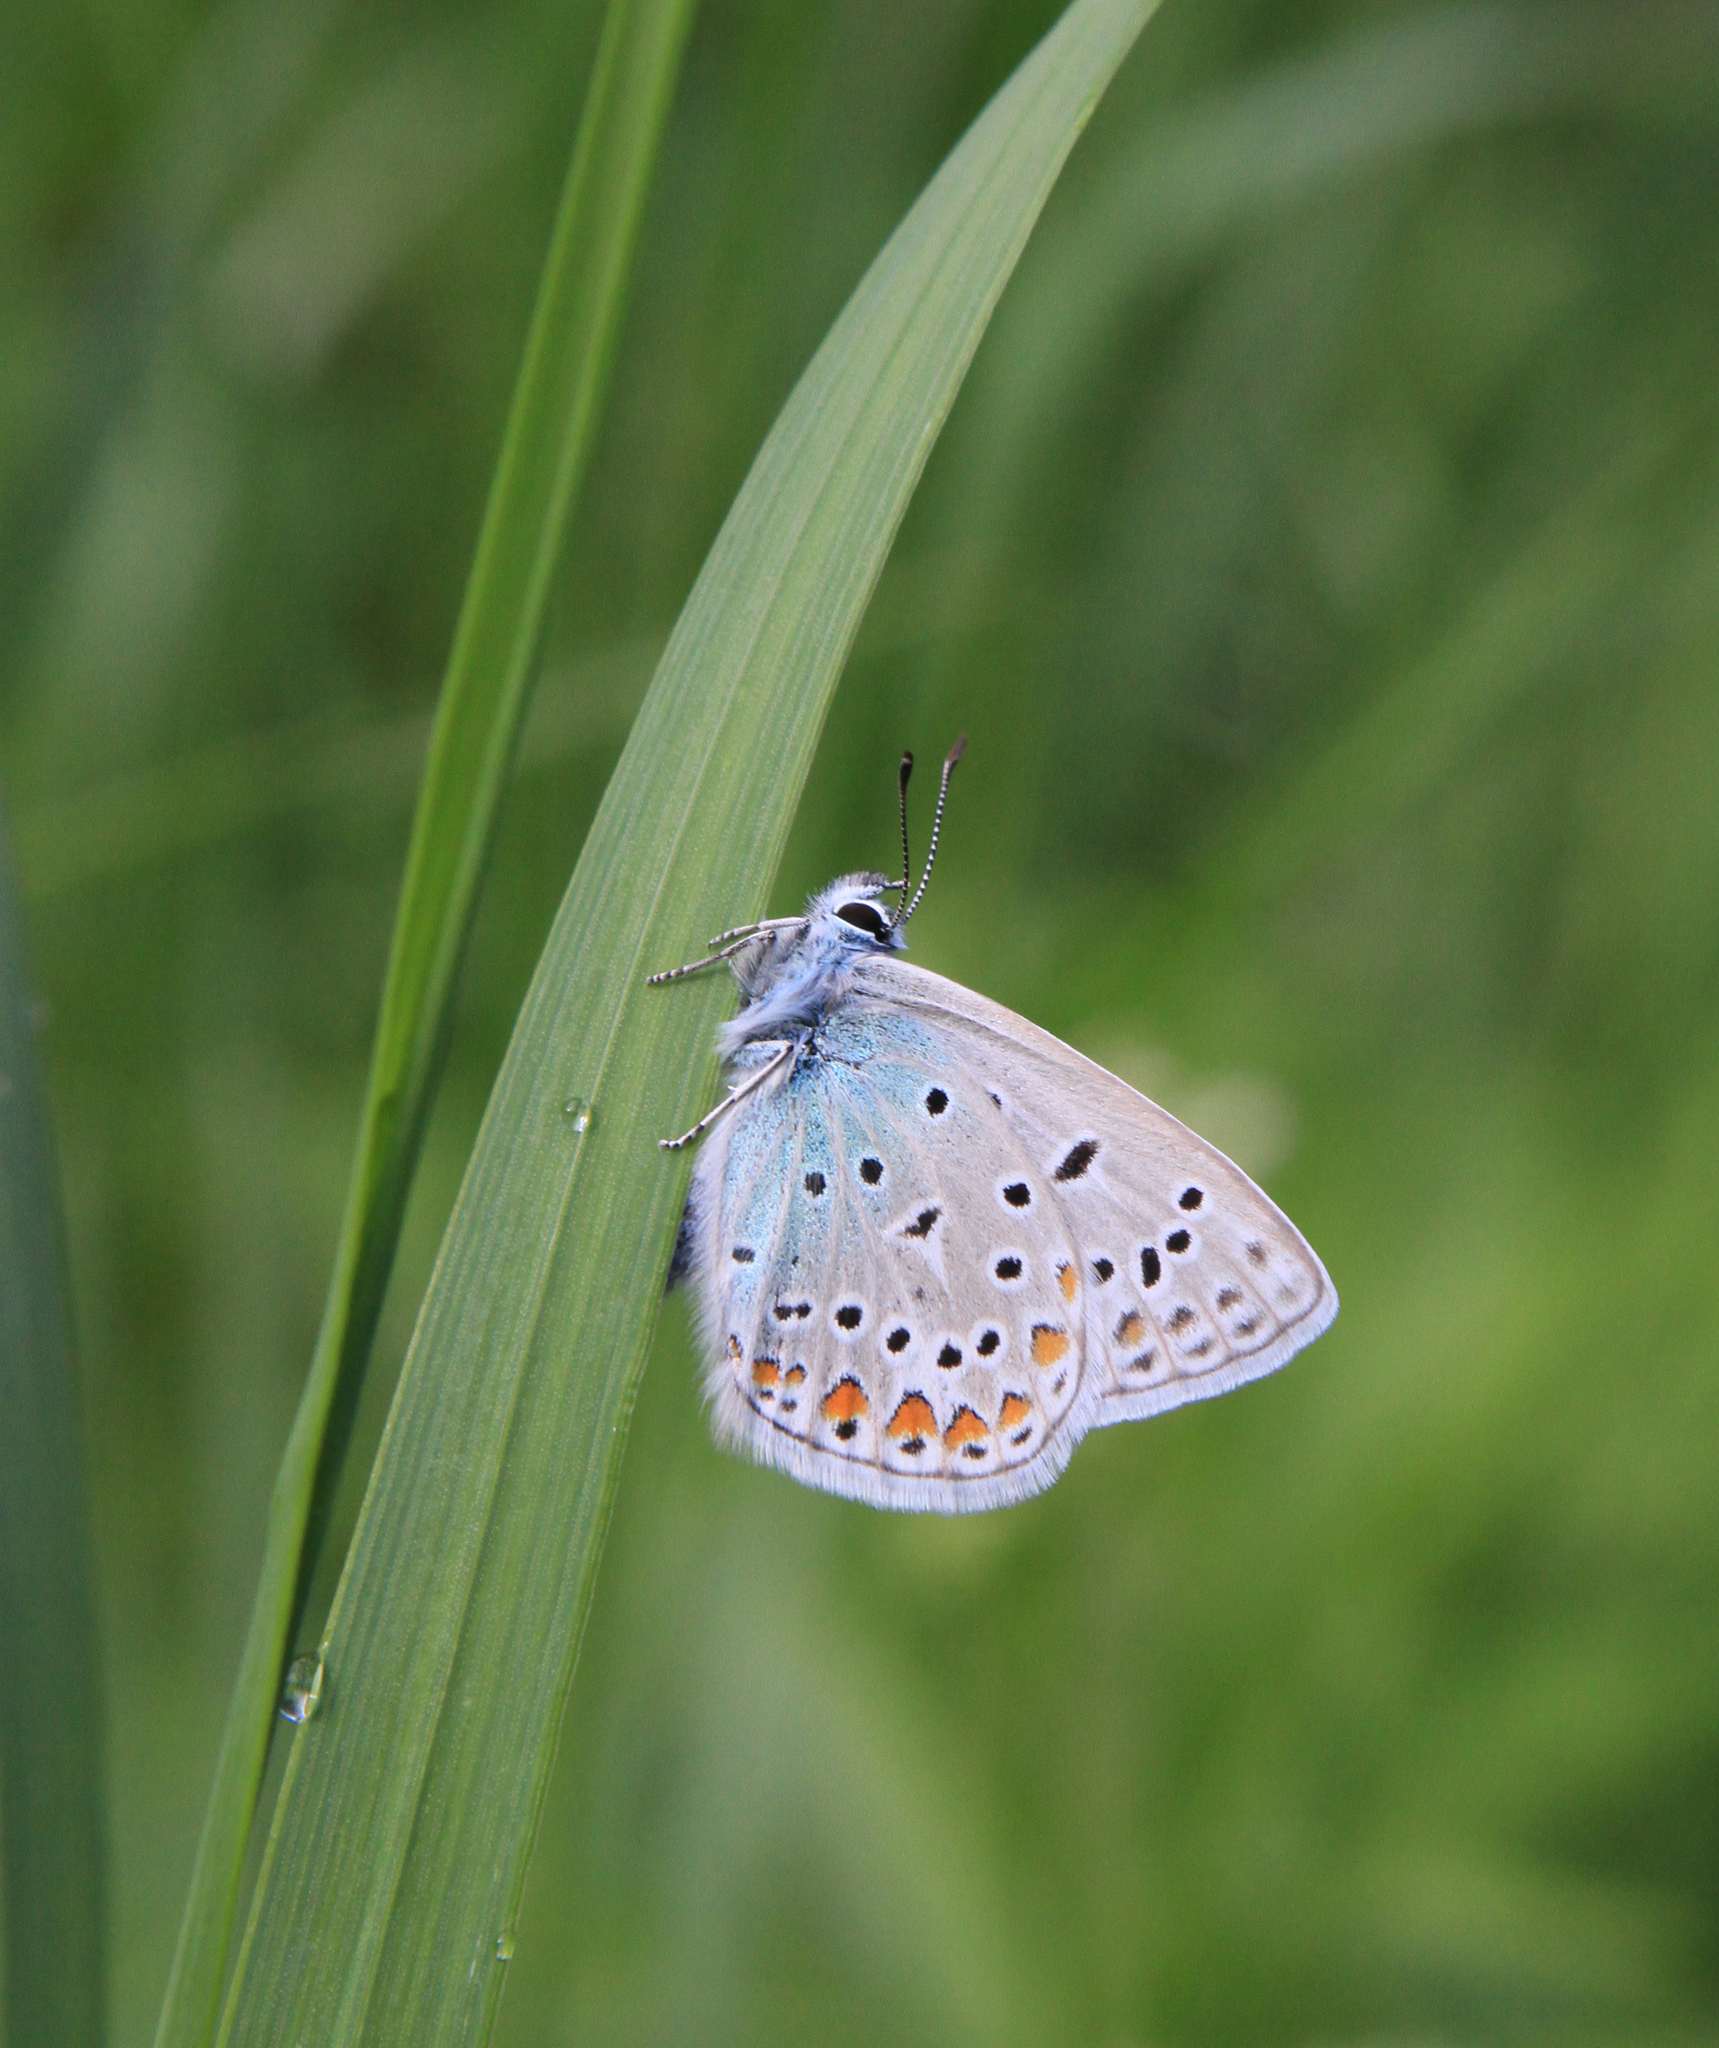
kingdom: Animalia
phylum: Arthropoda
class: Insecta
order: Lepidoptera
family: Lycaenidae
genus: Polyommatus
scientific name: Polyommatus icarus
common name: Common blue
